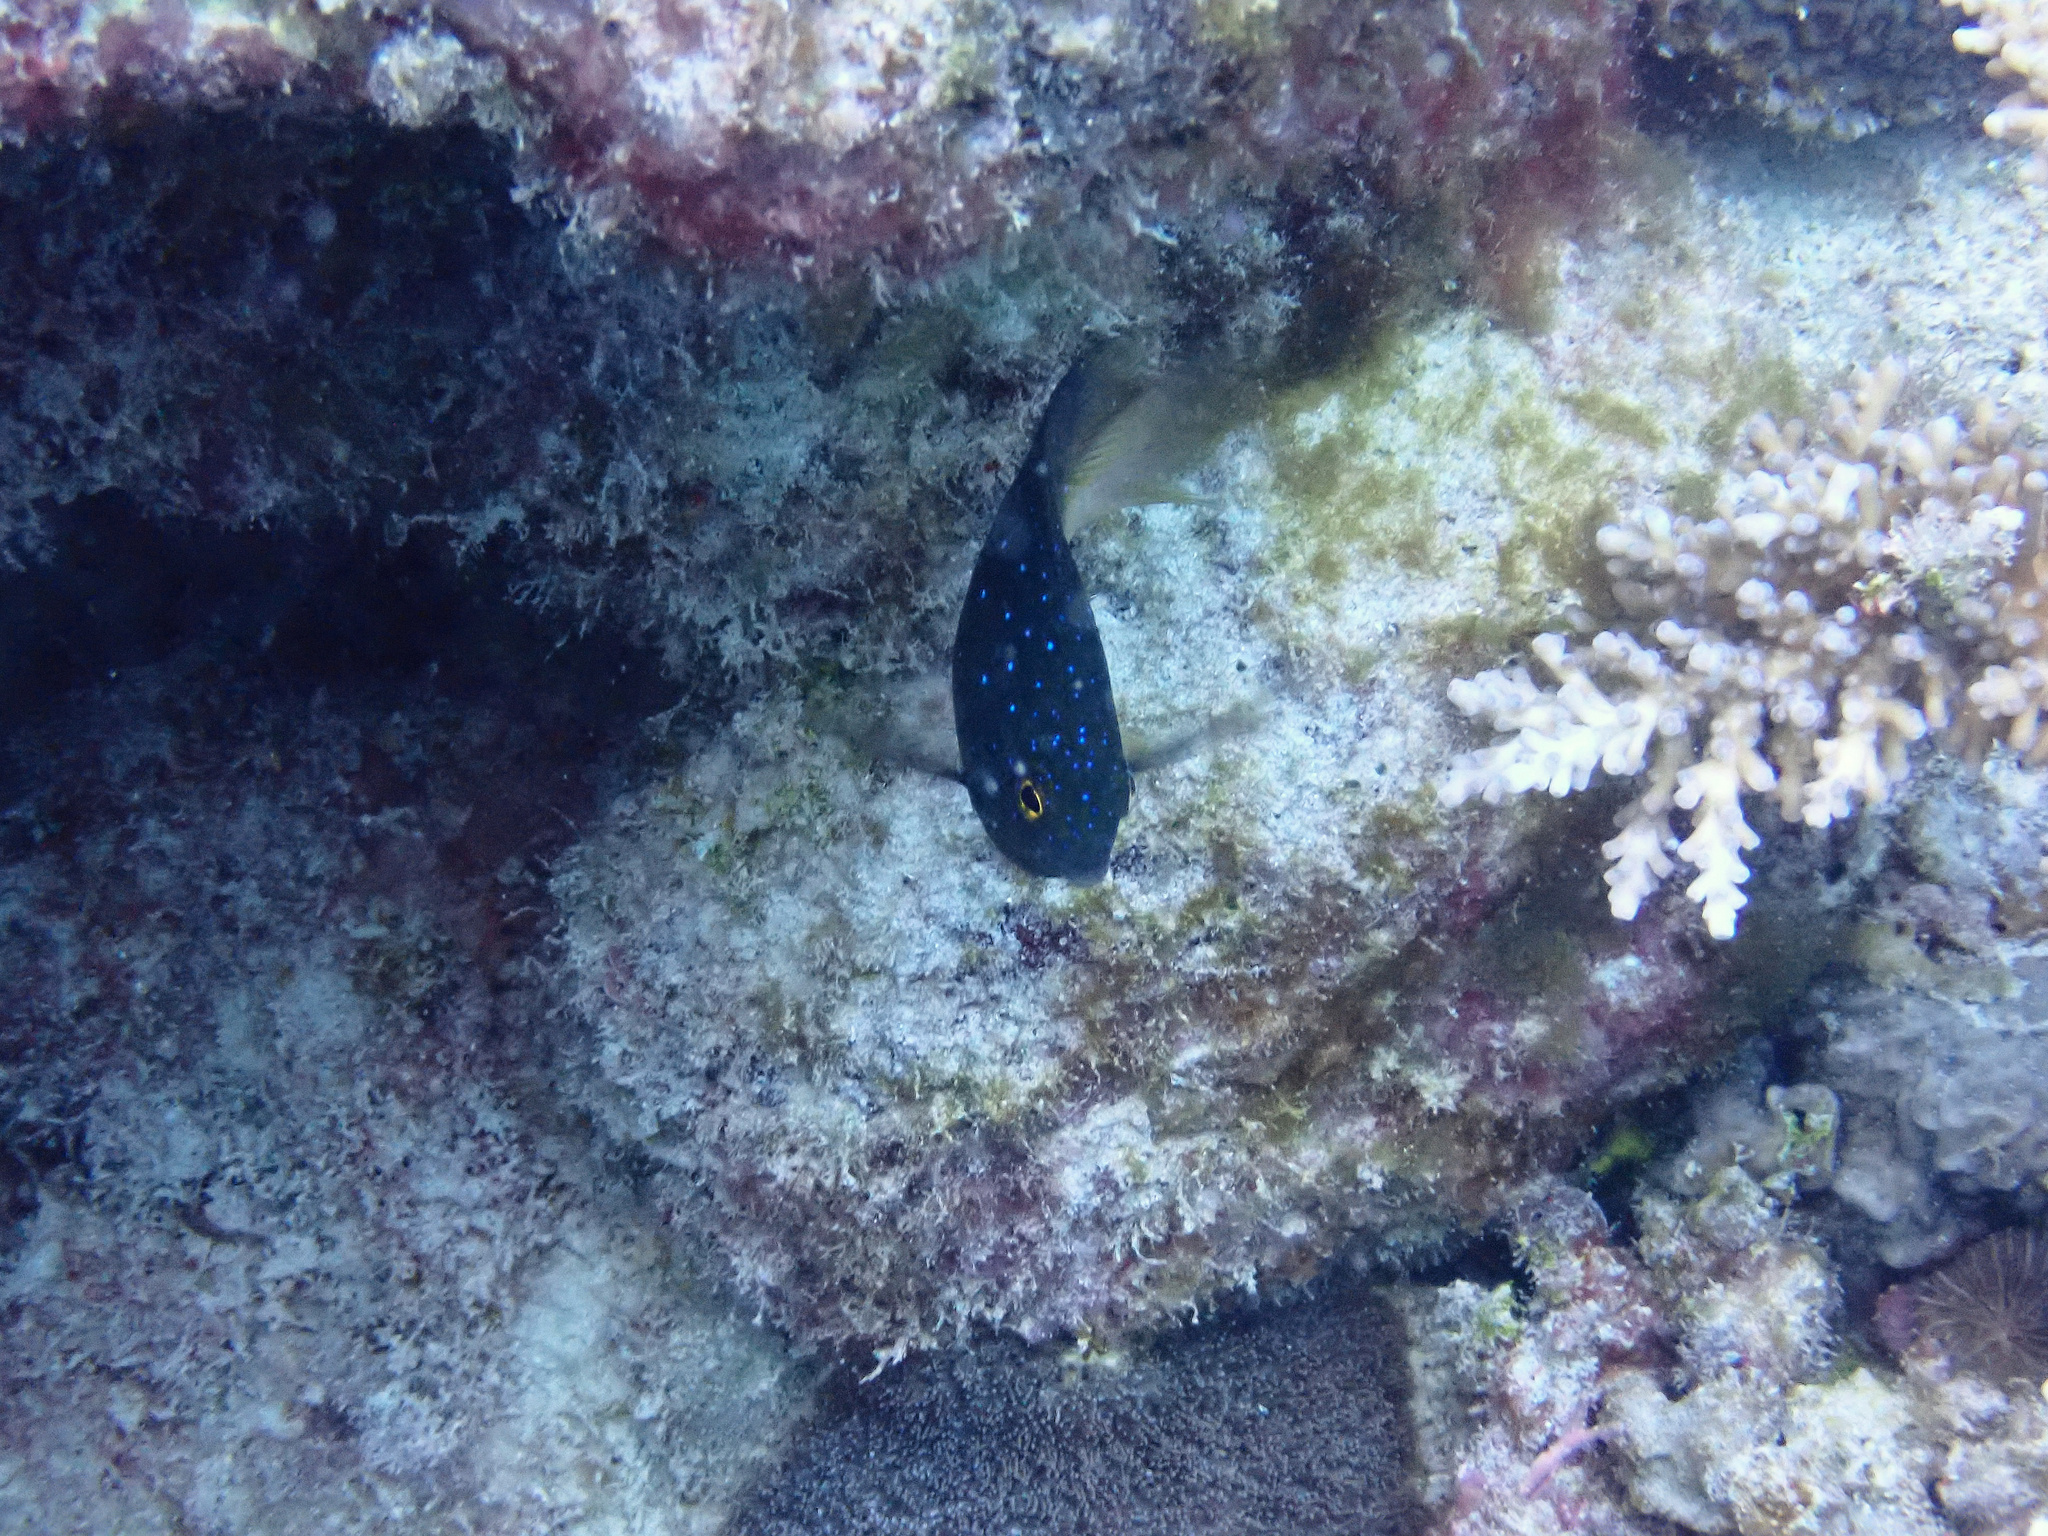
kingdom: Animalia
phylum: Chordata
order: Perciformes
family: Pomacentridae
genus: Plectroglyphidodon
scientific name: Plectroglyphidodon lacrymatus
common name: Jewel damsel
